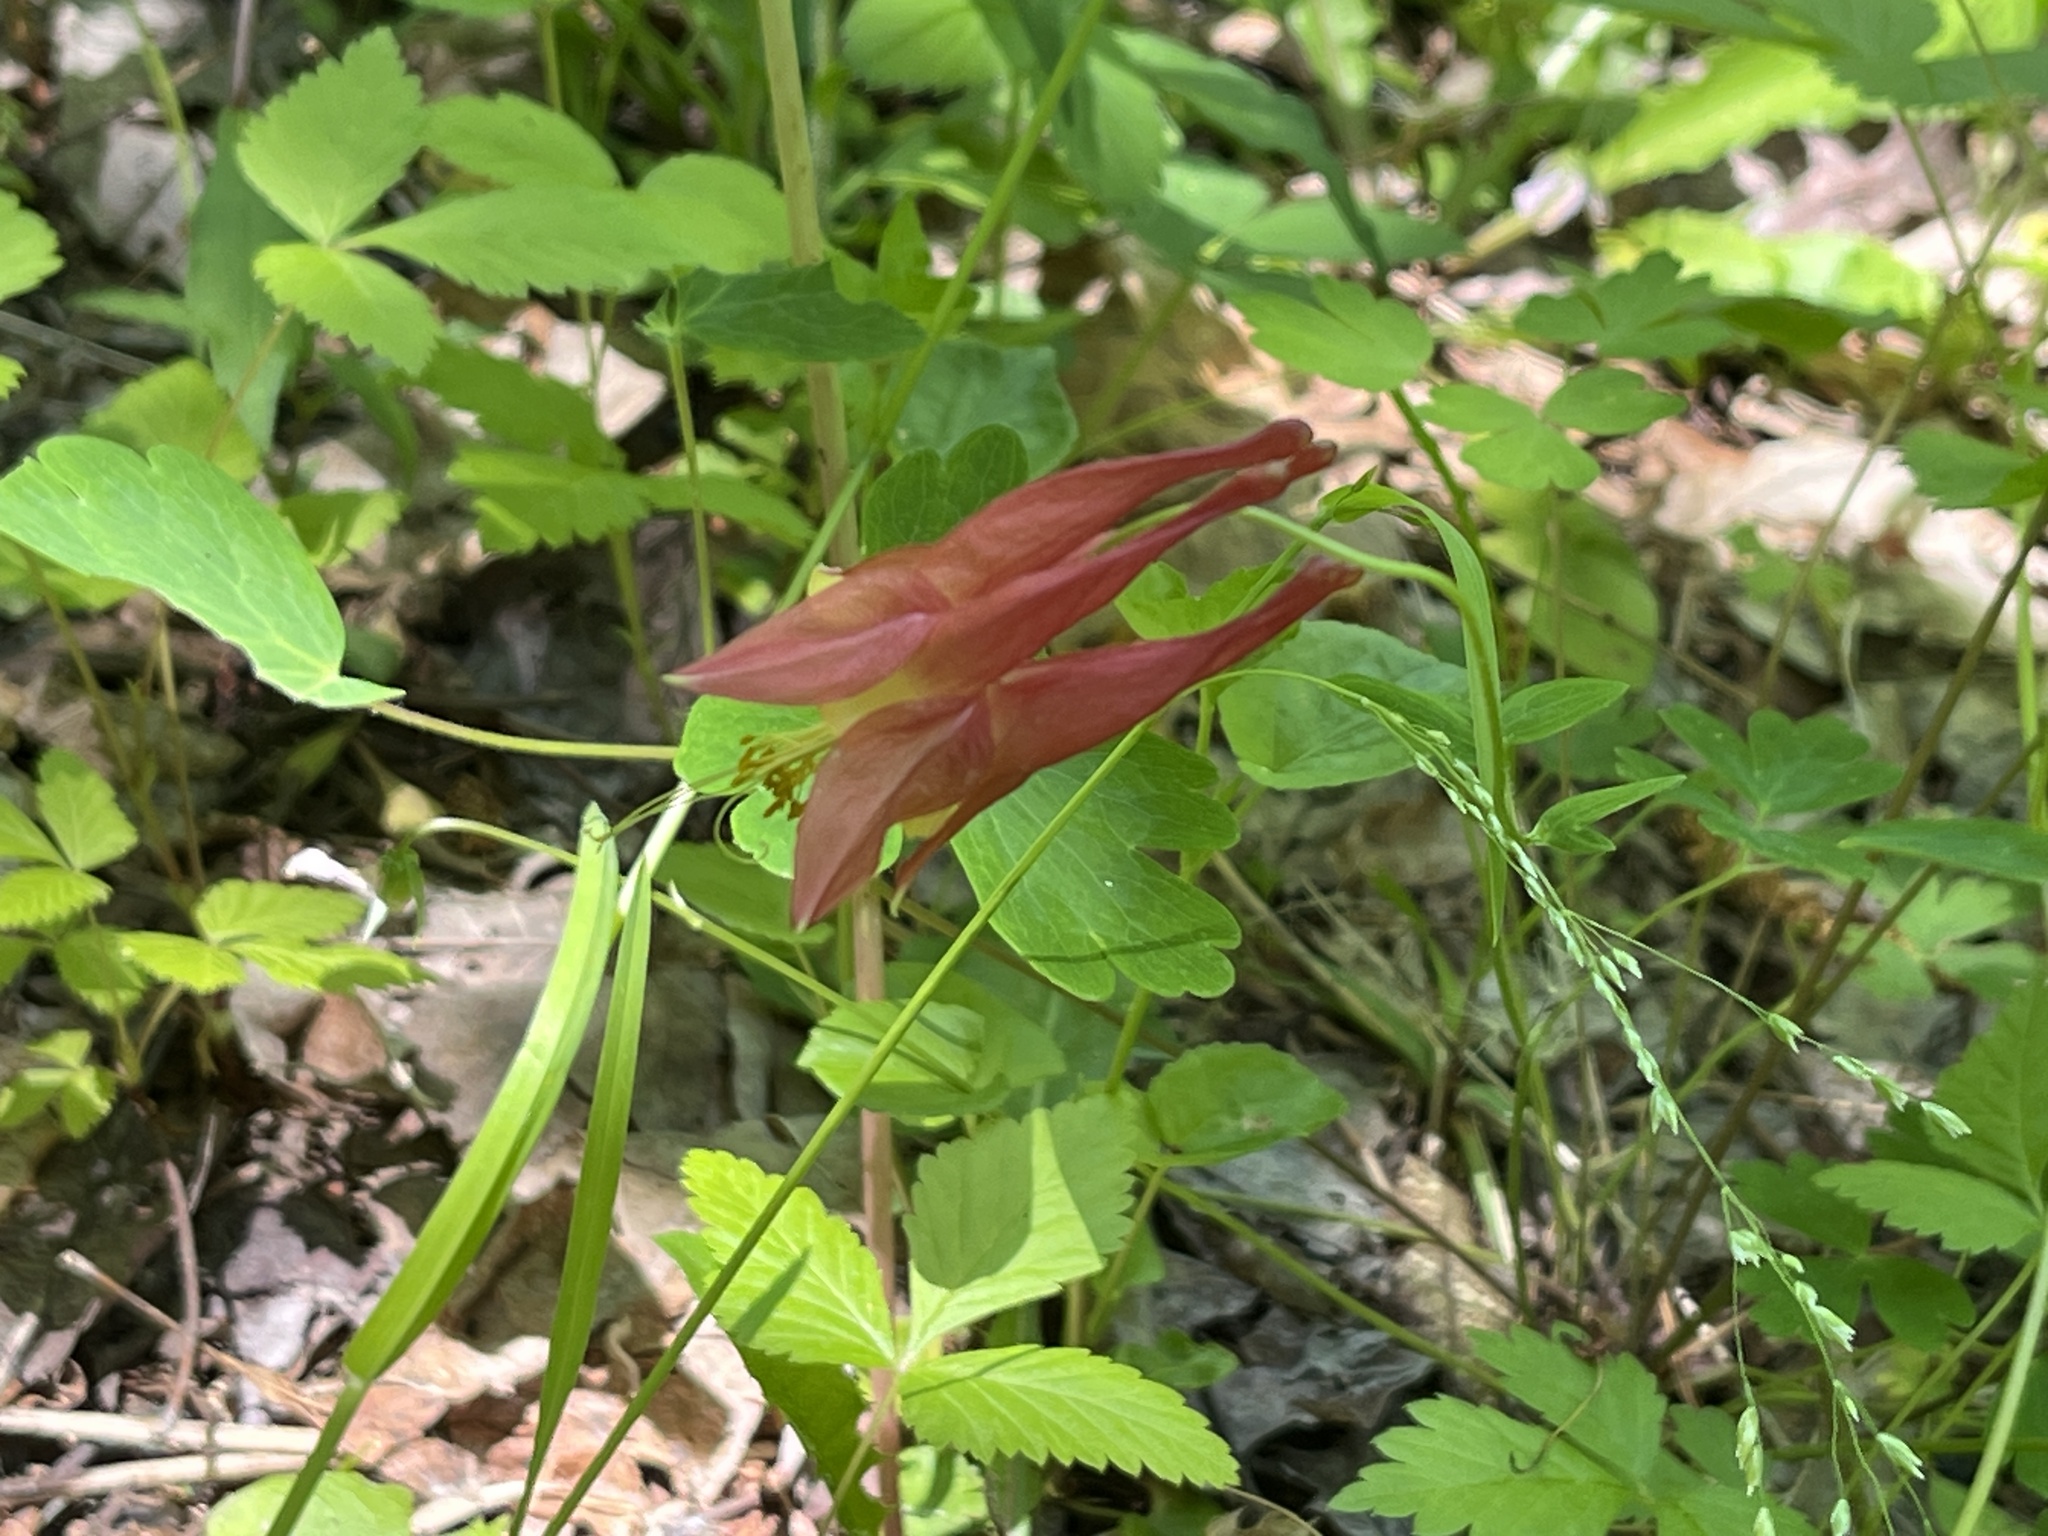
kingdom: Plantae
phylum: Tracheophyta
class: Magnoliopsida
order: Ranunculales
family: Ranunculaceae
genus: Aquilegia
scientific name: Aquilegia canadensis
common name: American columbine
